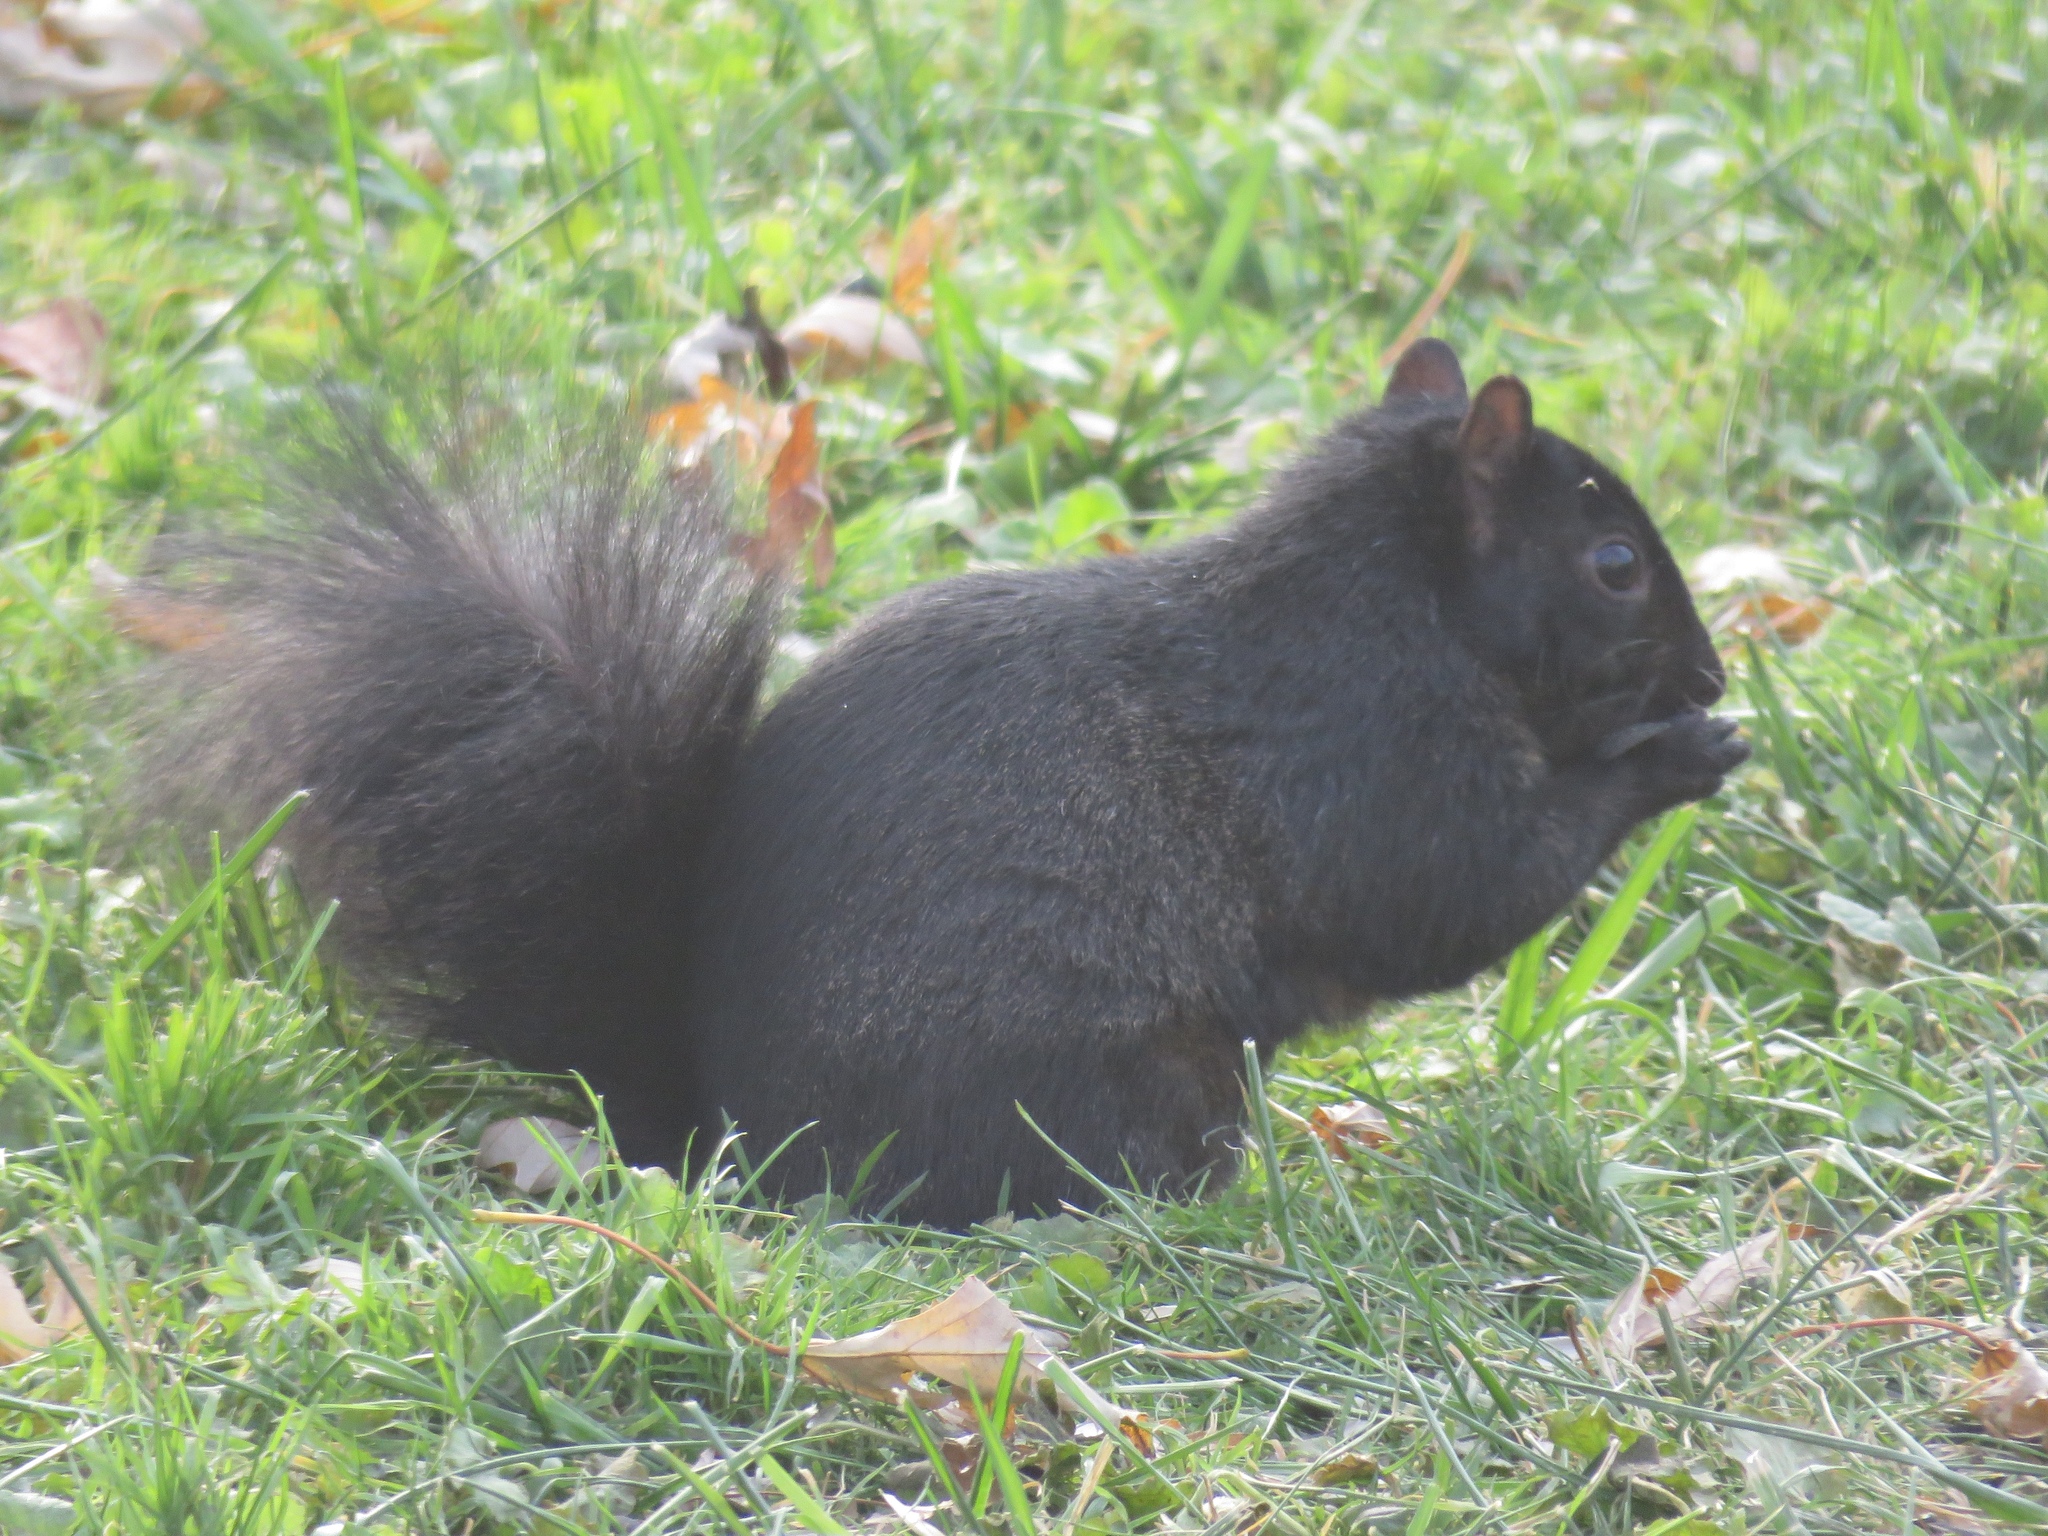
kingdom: Animalia
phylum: Chordata
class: Mammalia
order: Rodentia
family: Sciuridae
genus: Sciurus
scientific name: Sciurus carolinensis
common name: Eastern gray squirrel
